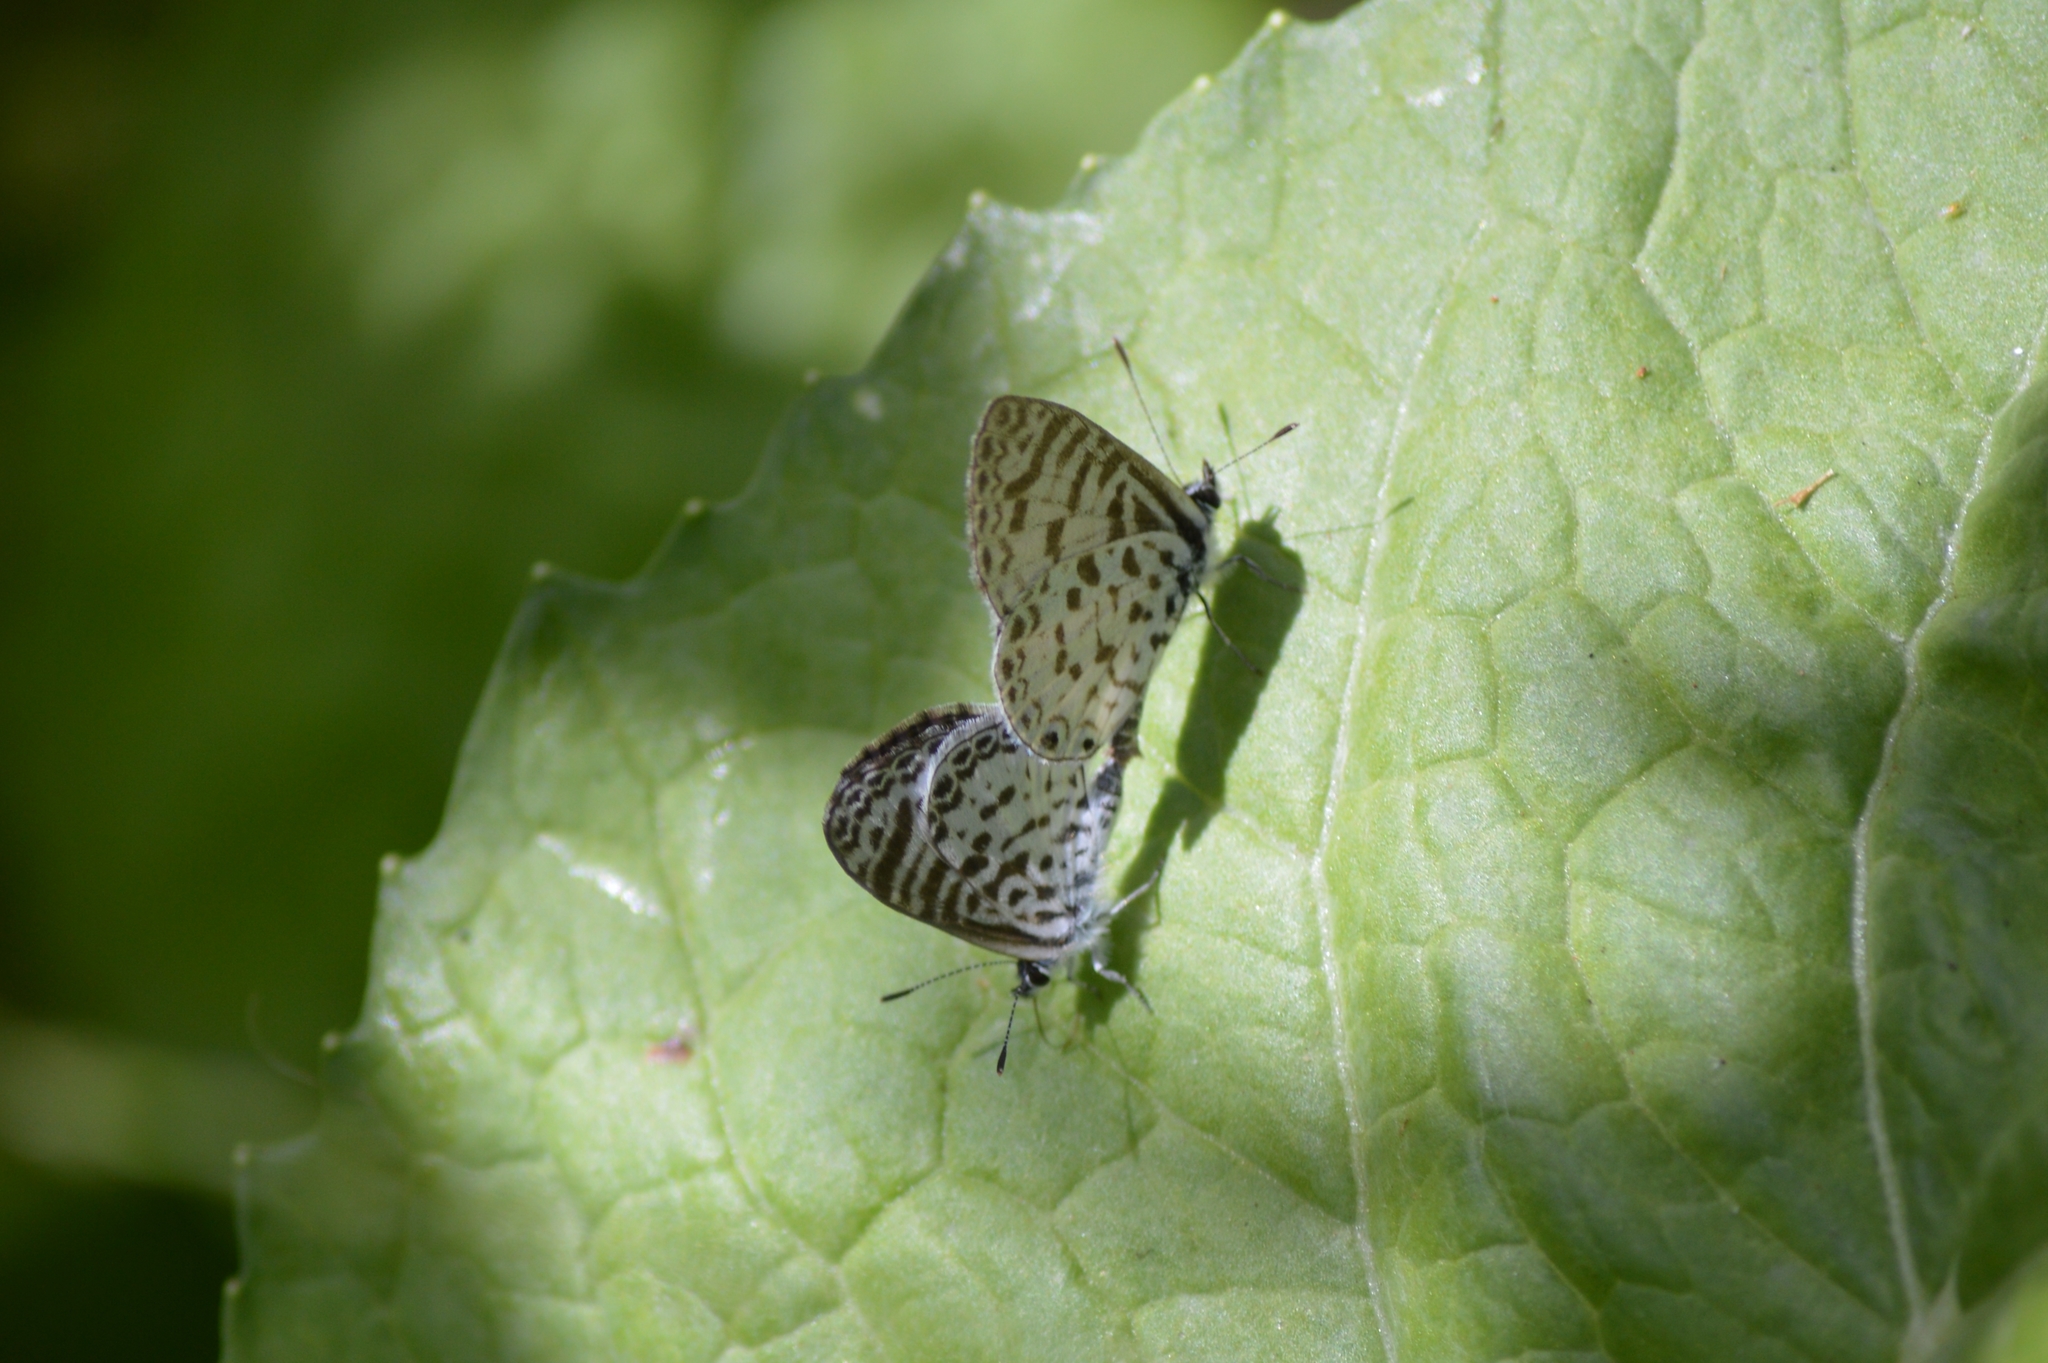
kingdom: Animalia
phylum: Arthropoda
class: Insecta
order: Lepidoptera
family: Lycaenidae
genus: Leptotes
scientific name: Leptotes cassius
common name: Cassius blue
